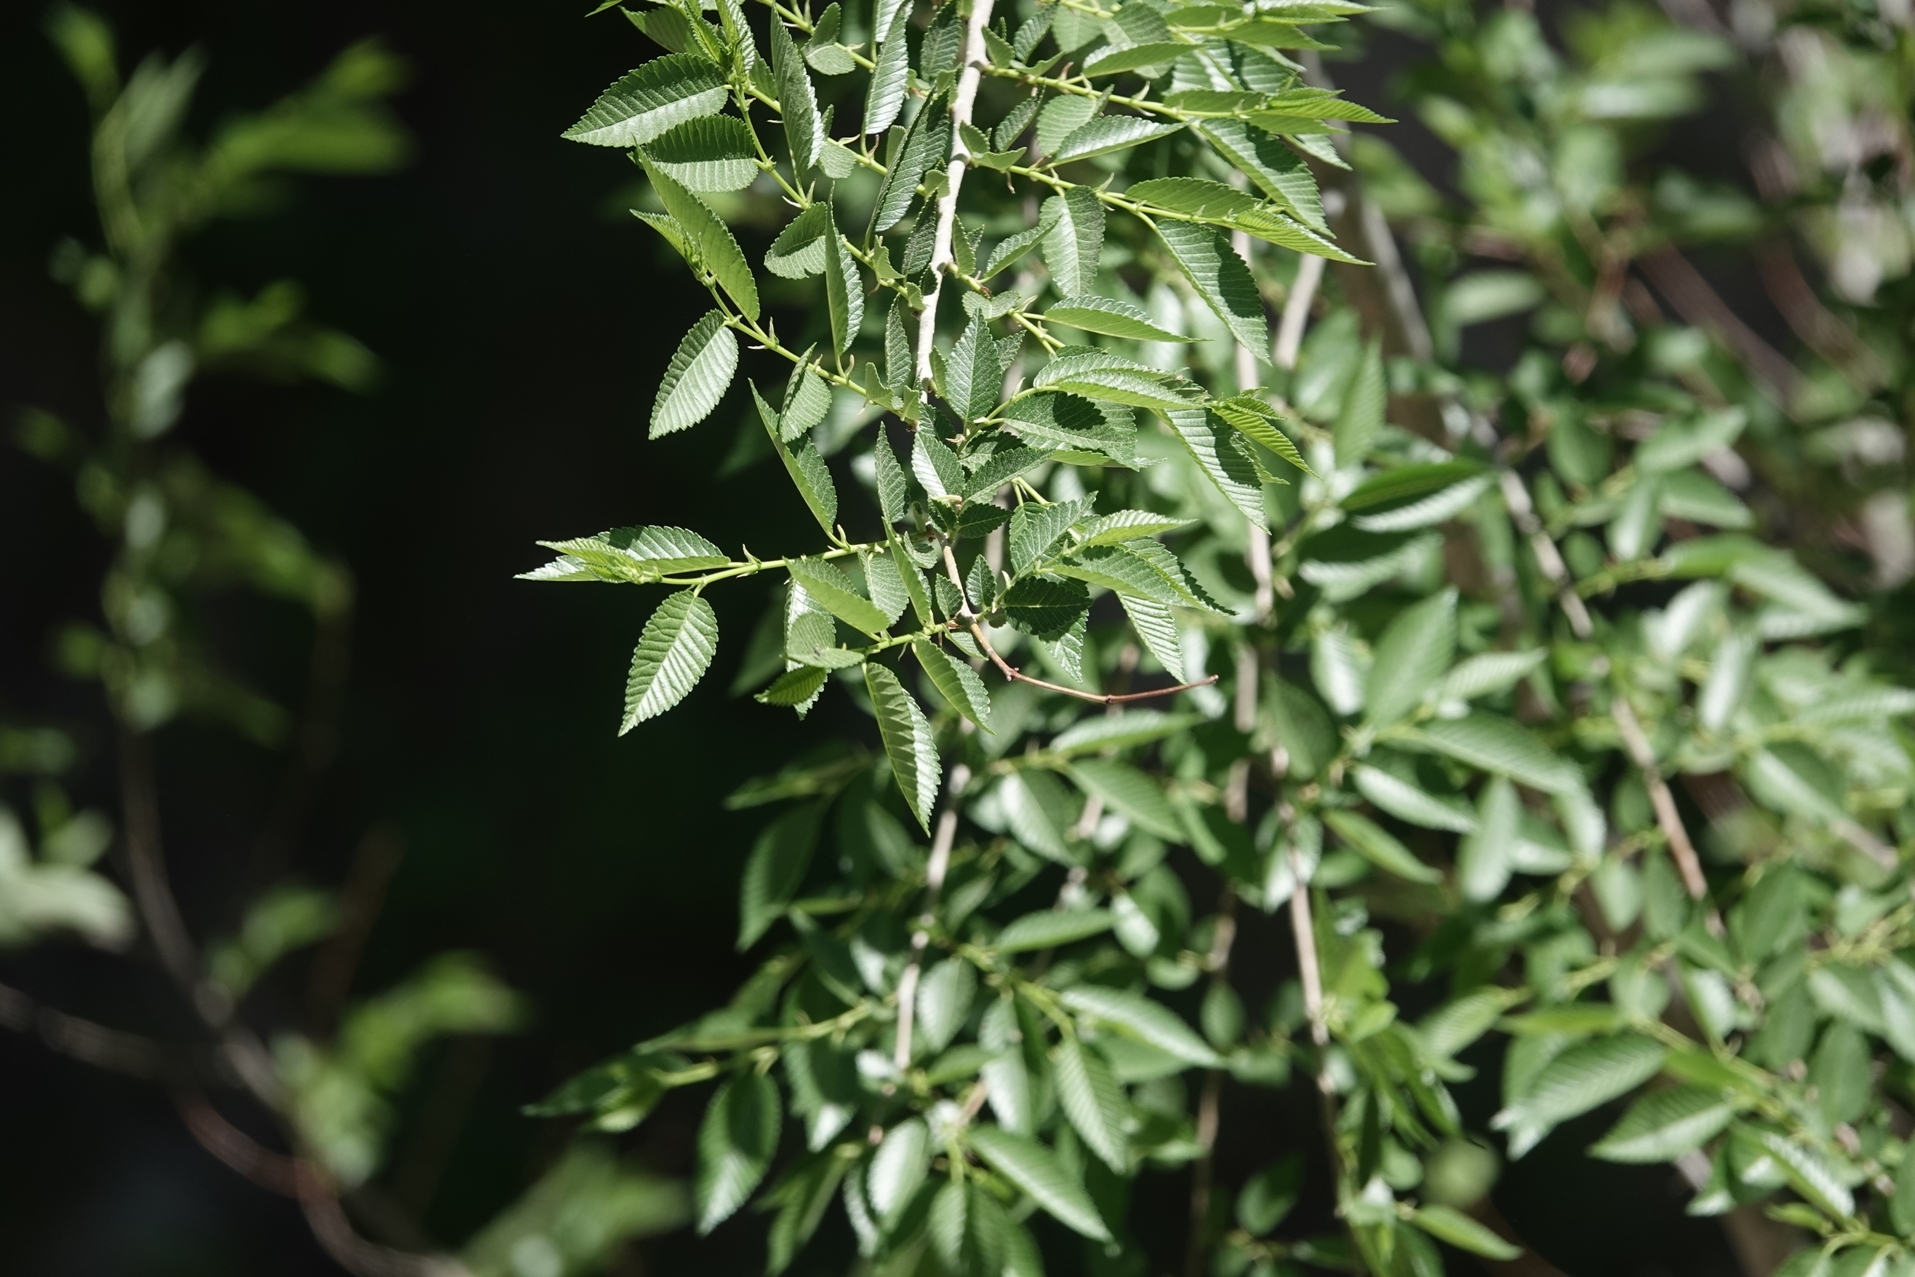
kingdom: Plantae
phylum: Tracheophyta
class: Magnoliopsida
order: Rosales
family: Ulmaceae
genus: Ulmus
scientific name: Ulmus pumila
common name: Siberian elm
